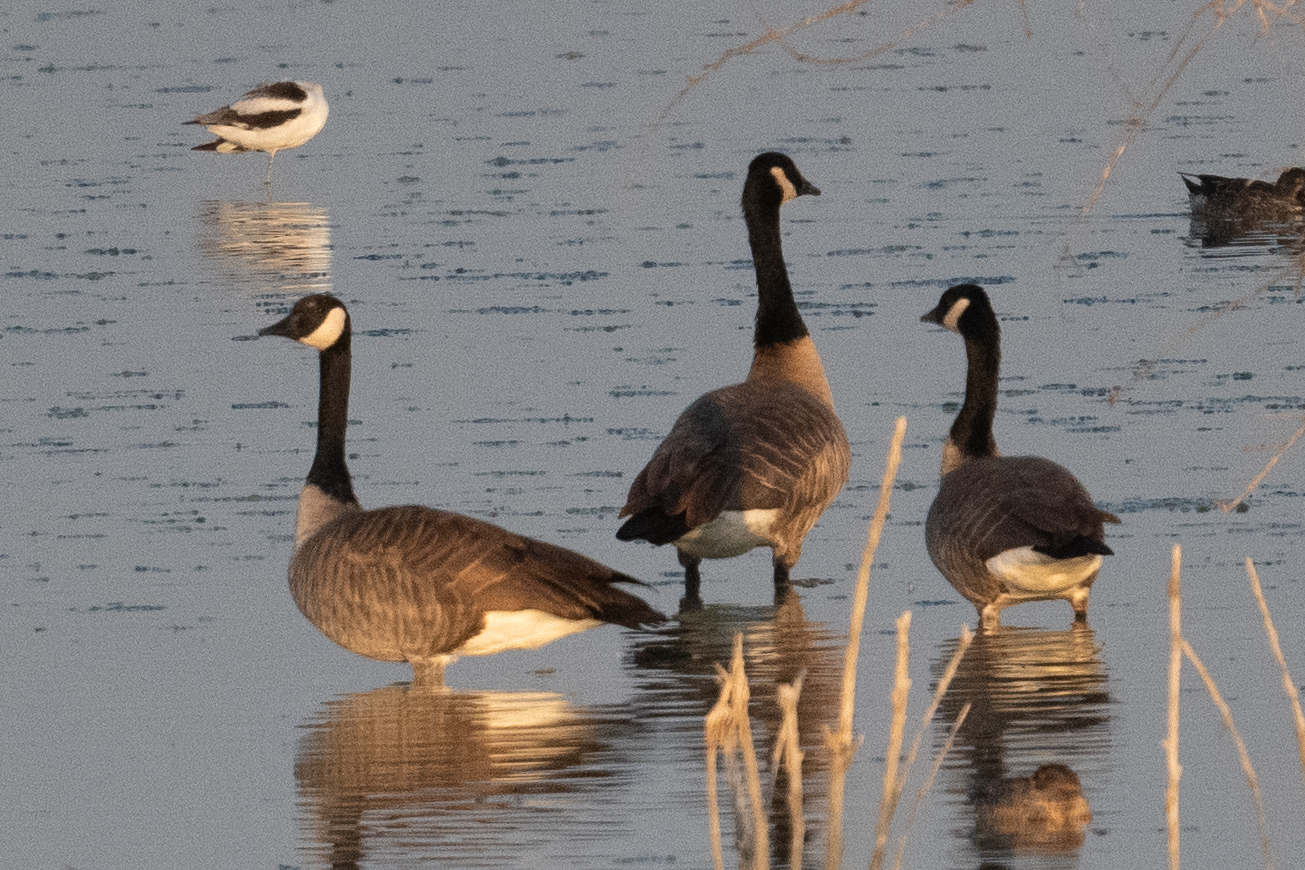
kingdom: Animalia
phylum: Chordata
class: Aves
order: Anseriformes
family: Anatidae
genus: Branta
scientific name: Branta canadensis
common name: Canada goose
